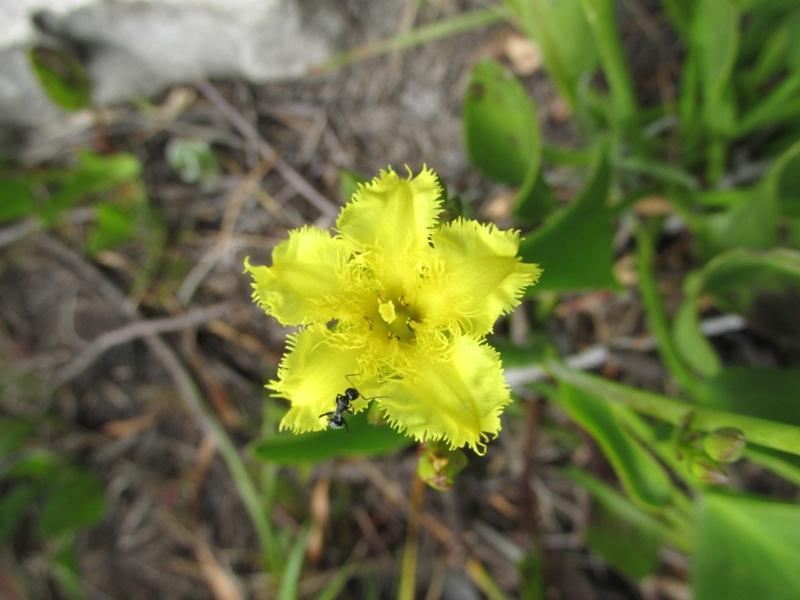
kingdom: Plantae
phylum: Tracheophyta
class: Magnoliopsida
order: Asterales
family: Menyanthaceae
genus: Villarsia
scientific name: Villarsia goldblattiana
